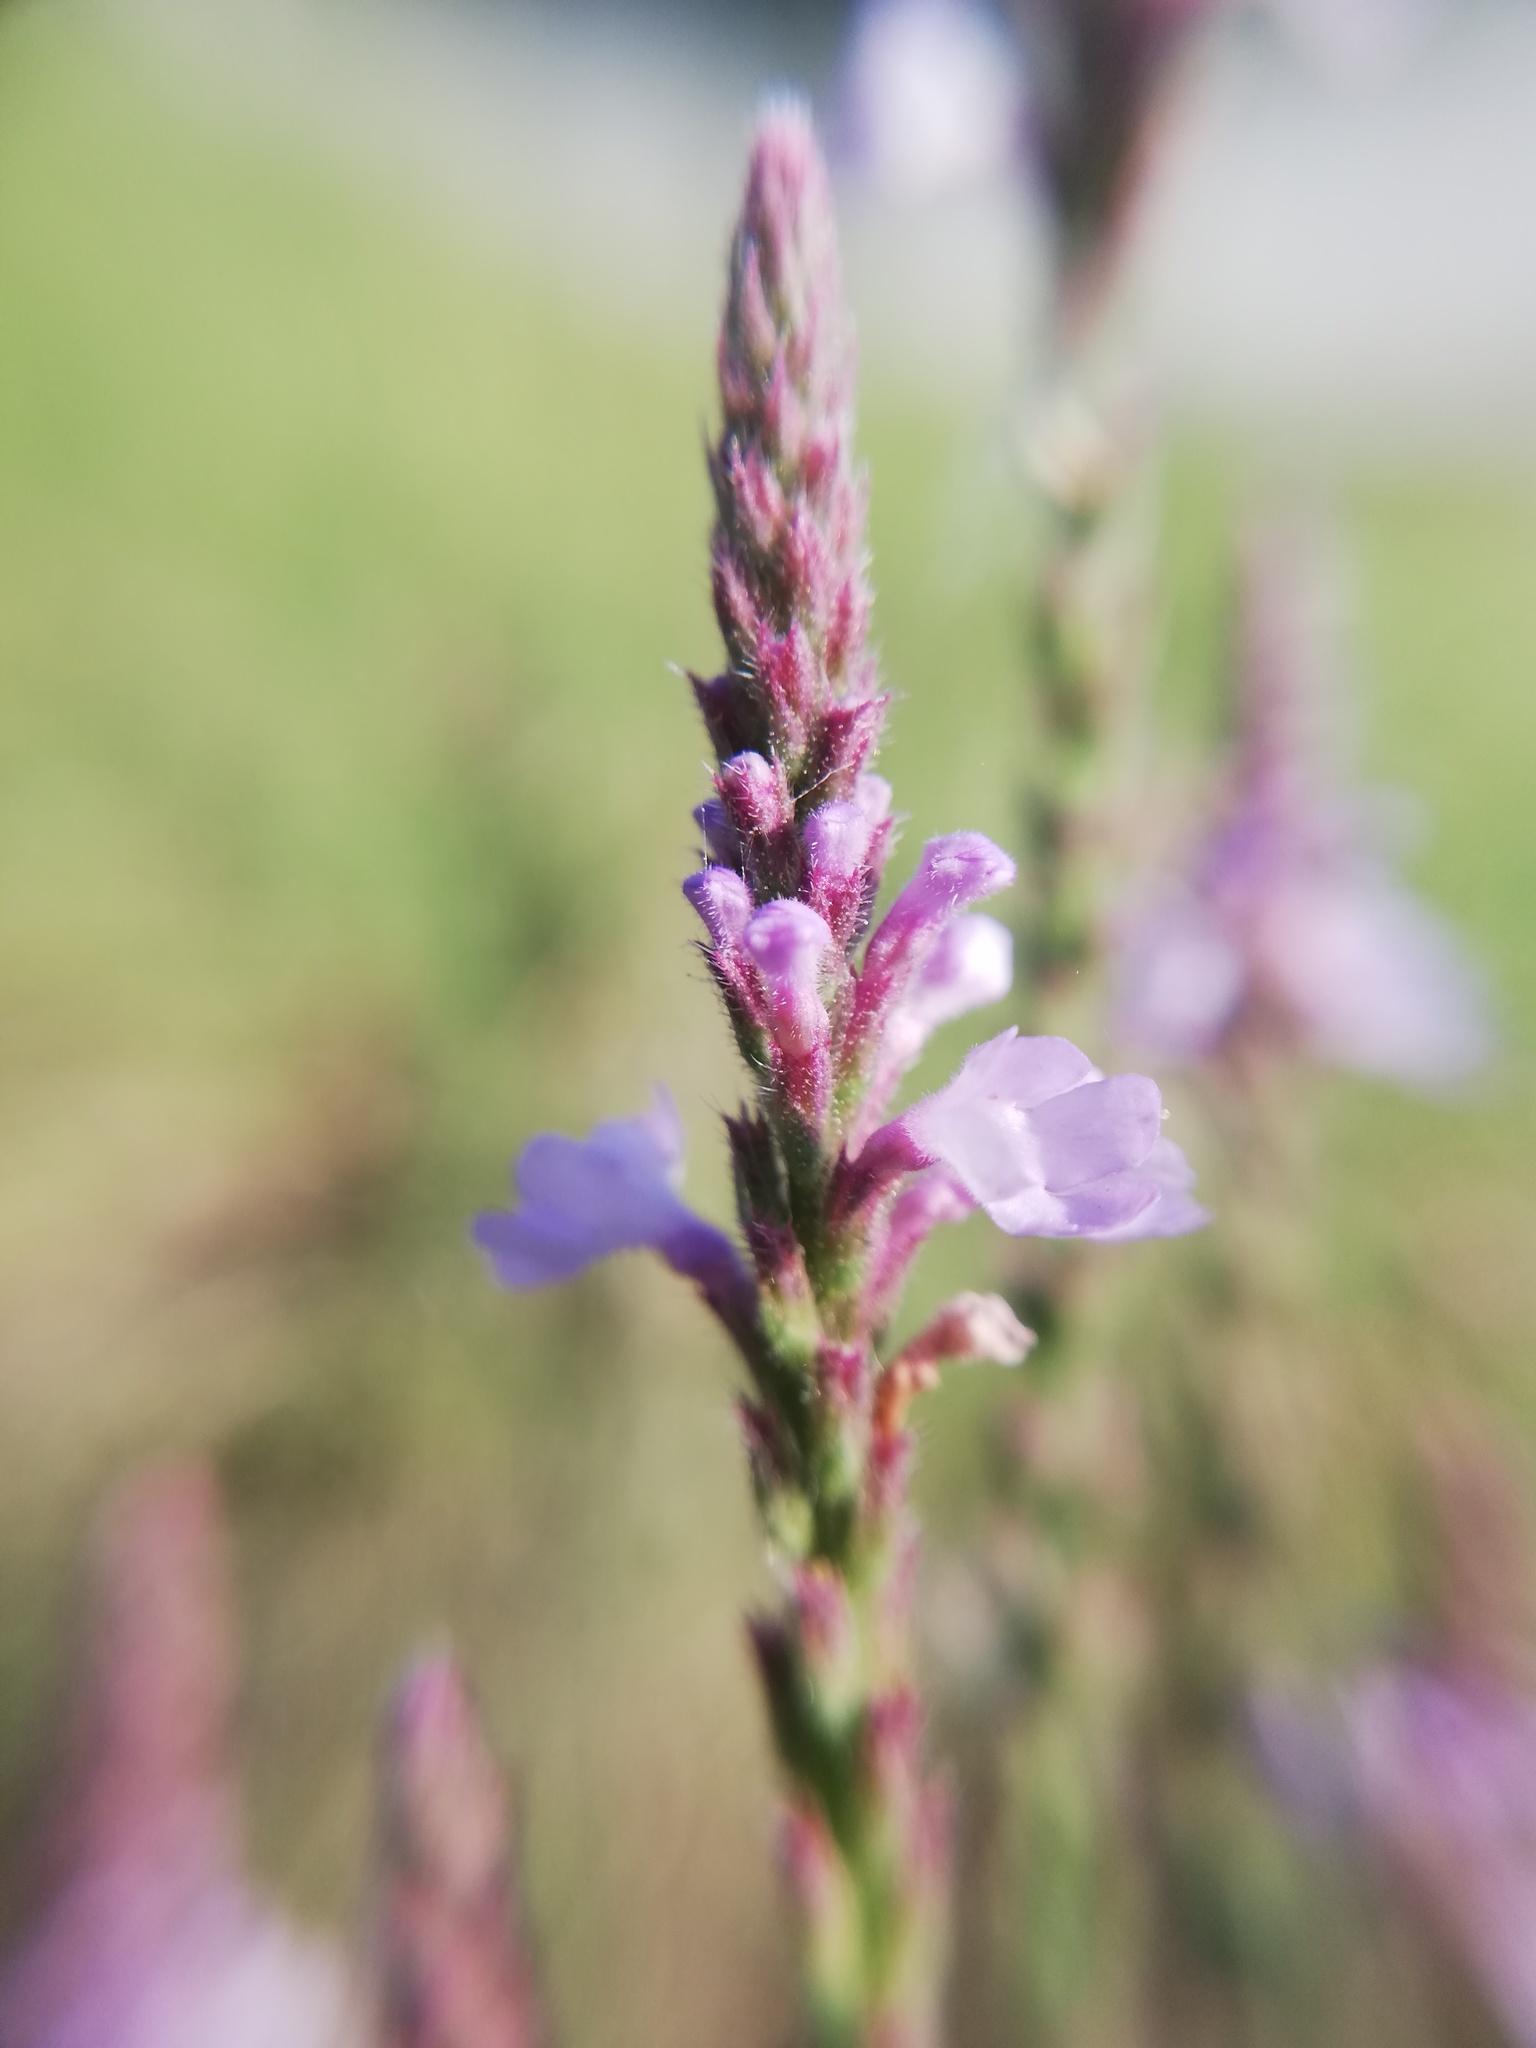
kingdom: Plantae
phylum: Tracheophyta
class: Magnoliopsida
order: Lamiales
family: Verbenaceae
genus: Verbena
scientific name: Verbena canescens
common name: Gray vervain
